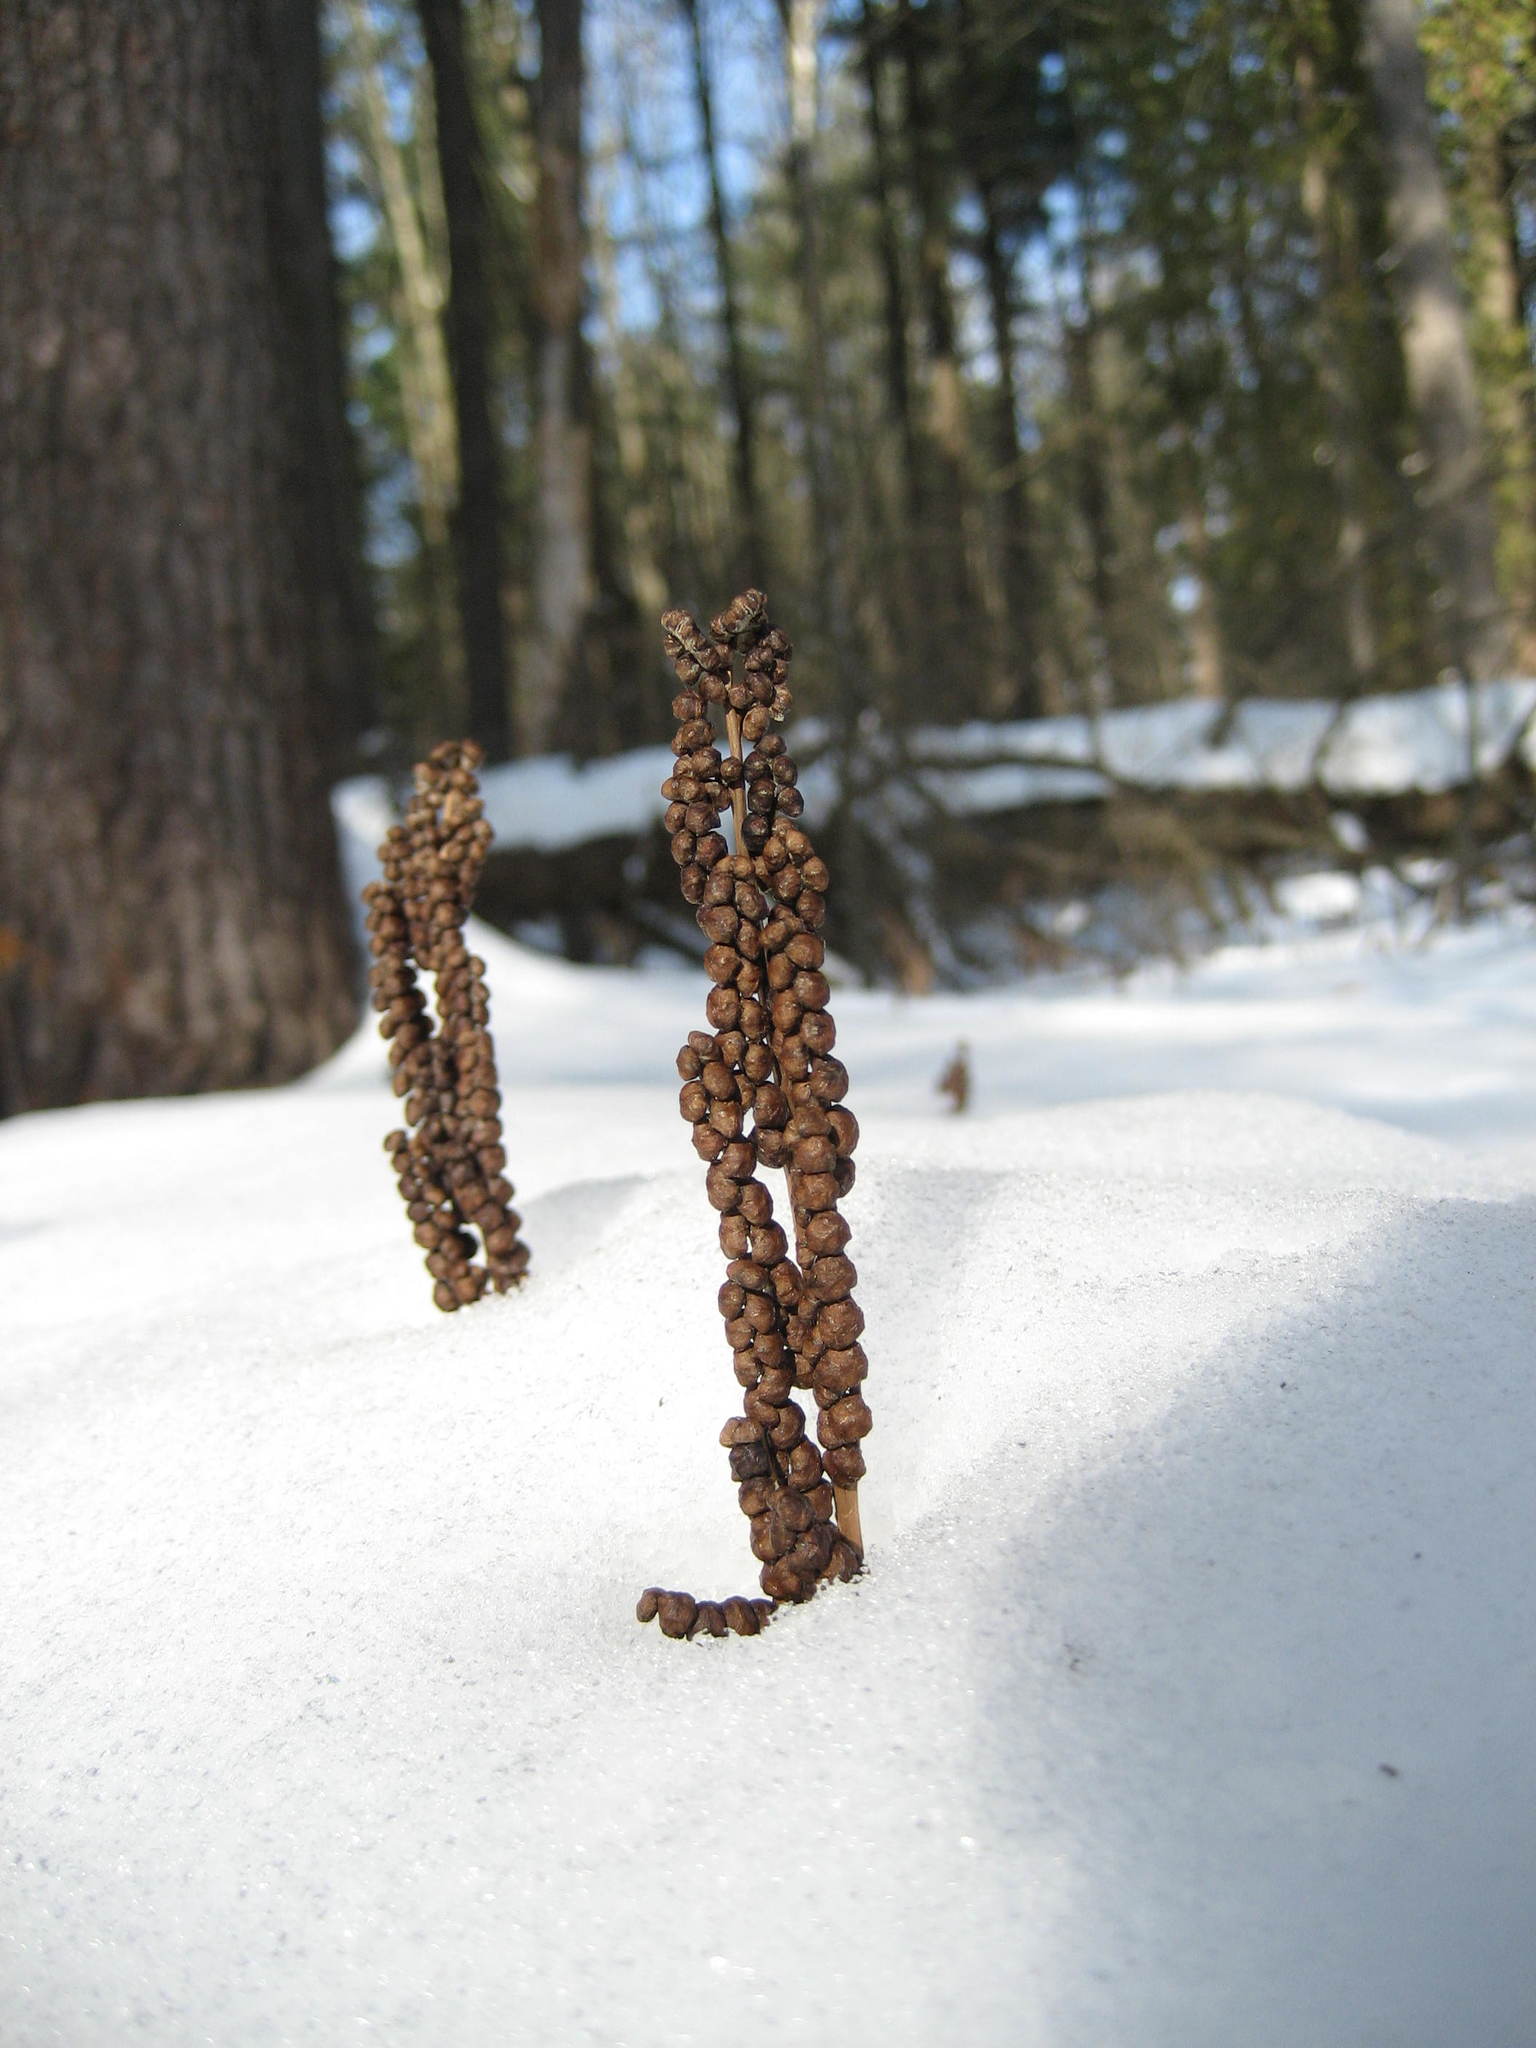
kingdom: Plantae
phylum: Tracheophyta
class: Polypodiopsida
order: Polypodiales
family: Onocleaceae
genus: Onoclea
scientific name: Onoclea sensibilis
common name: Sensitive fern
